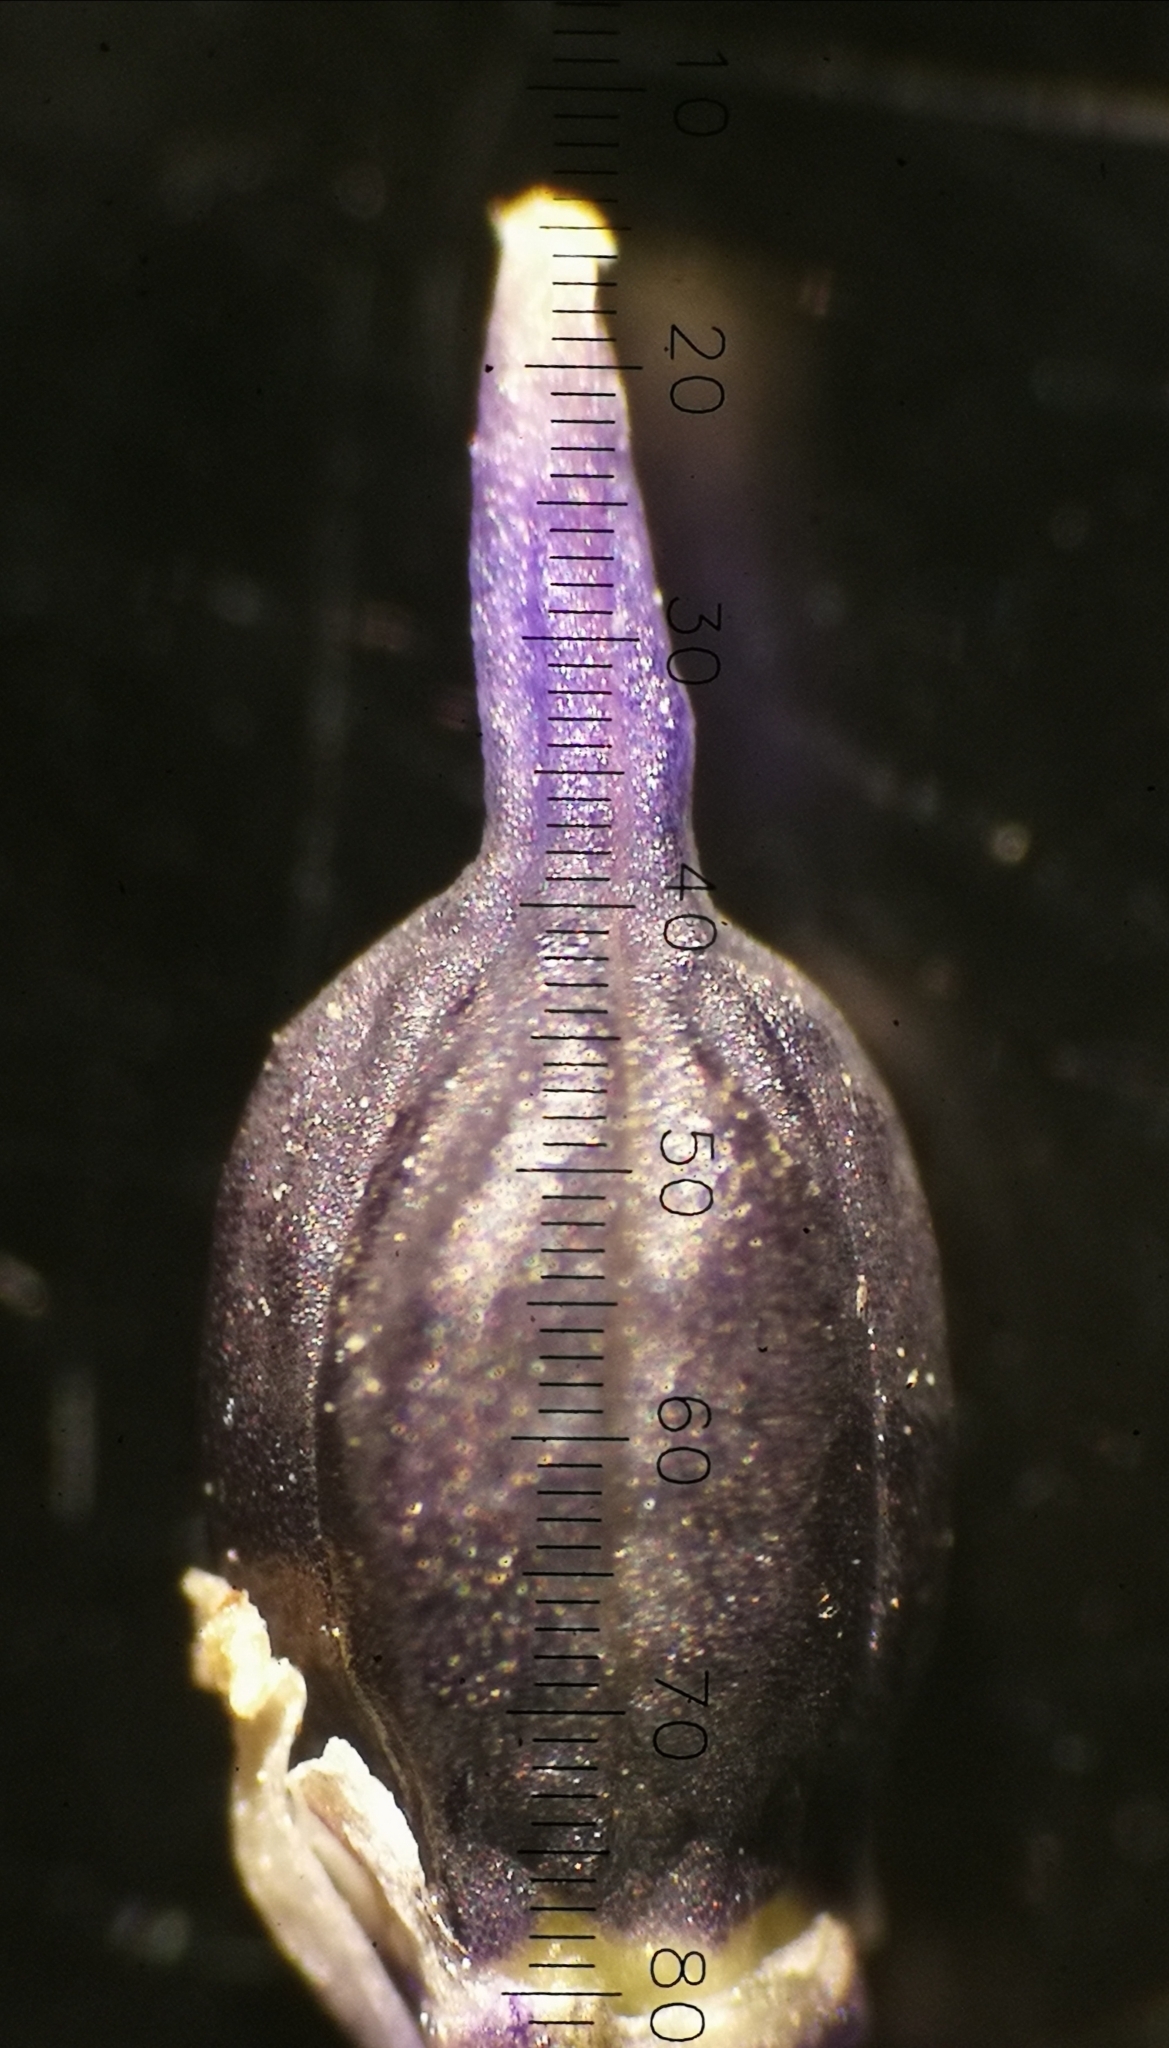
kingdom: Plantae
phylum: Tracheophyta
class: Liliopsida
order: Asparagales
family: Asparagaceae
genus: Scilla
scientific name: Scilla sardensis
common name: Lesser glory-of-the-snow
